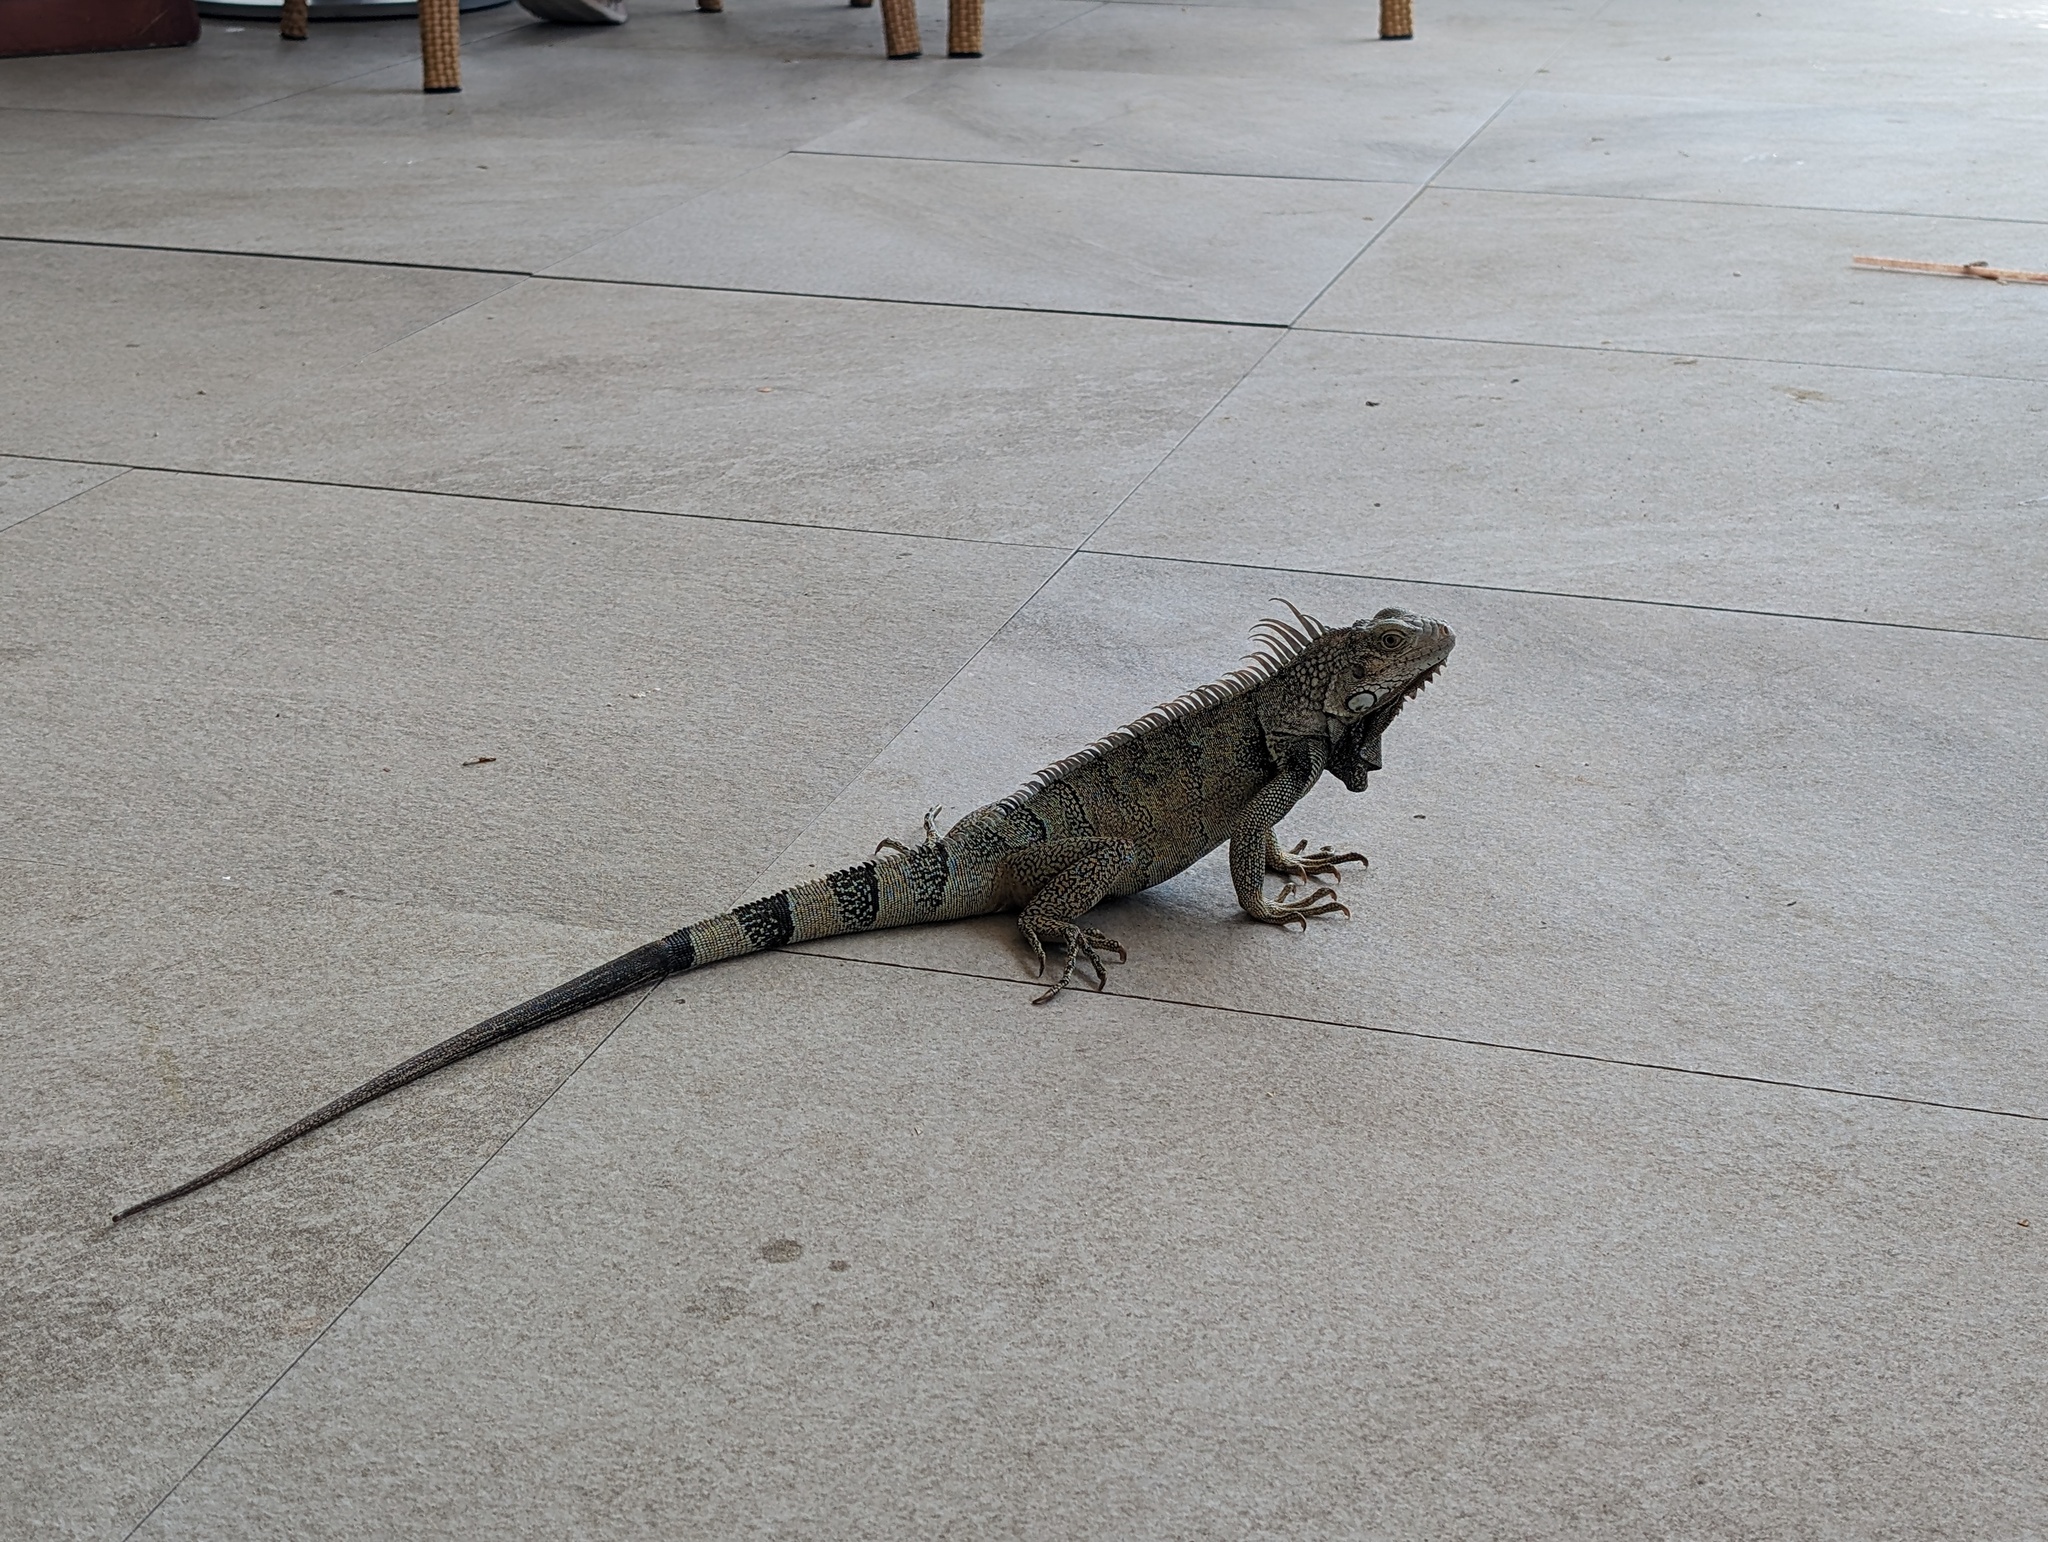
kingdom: Animalia
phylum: Chordata
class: Squamata
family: Iguanidae
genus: Iguana
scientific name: Iguana iguana
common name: Green iguana
